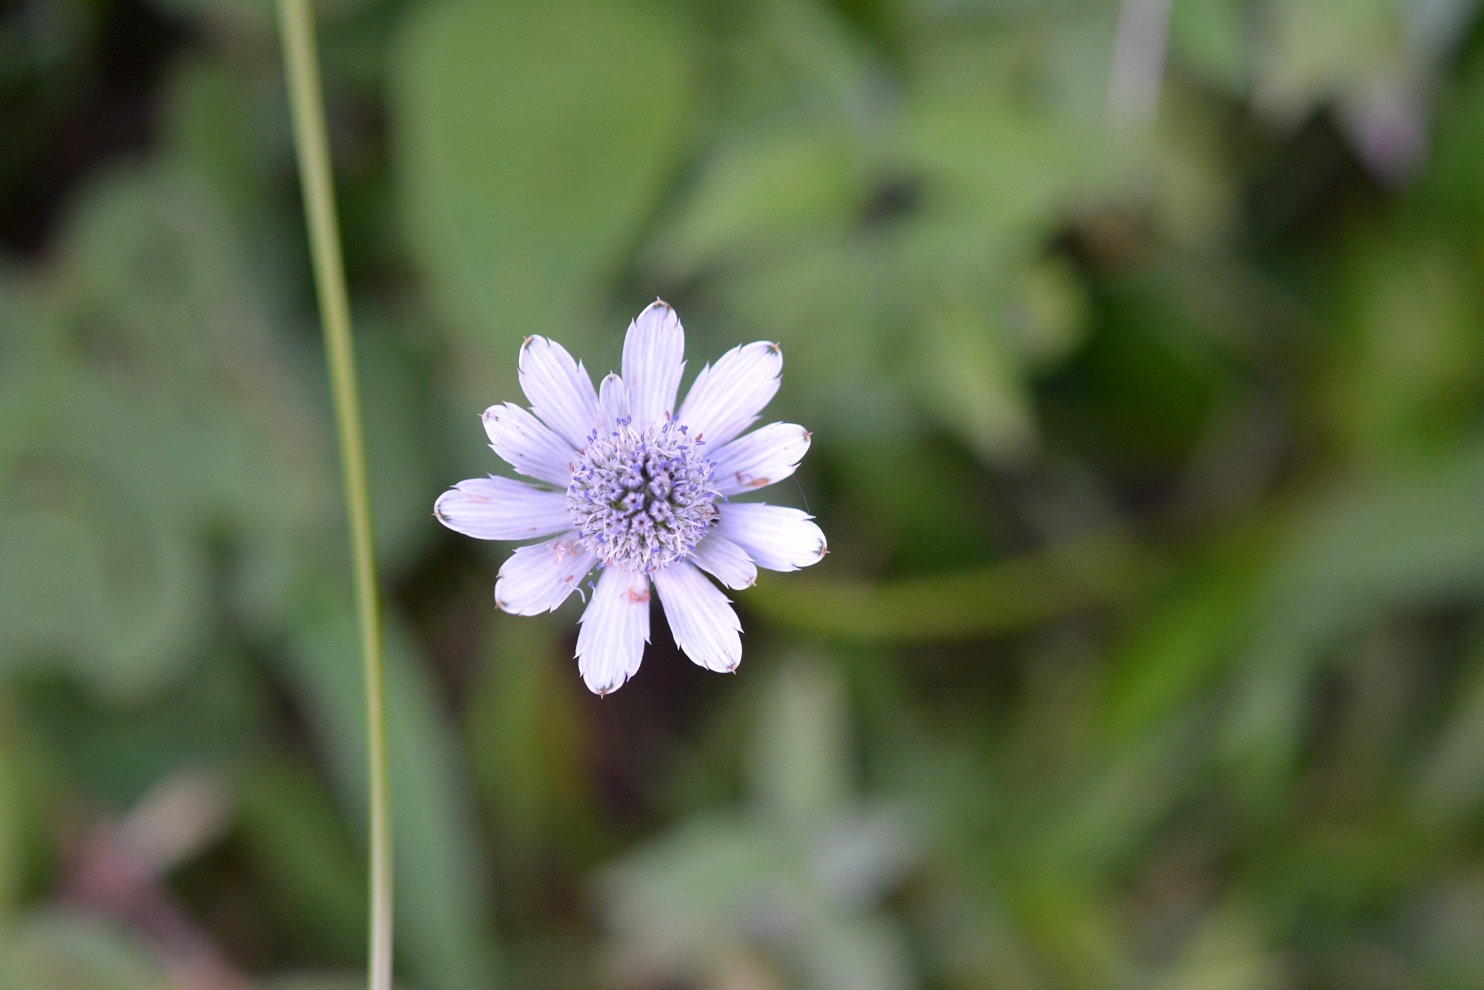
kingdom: Plantae
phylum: Tracheophyta
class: Magnoliopsida
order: Apiales
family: Apiaceae
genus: Eryngium
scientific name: Eryngium scaposum
